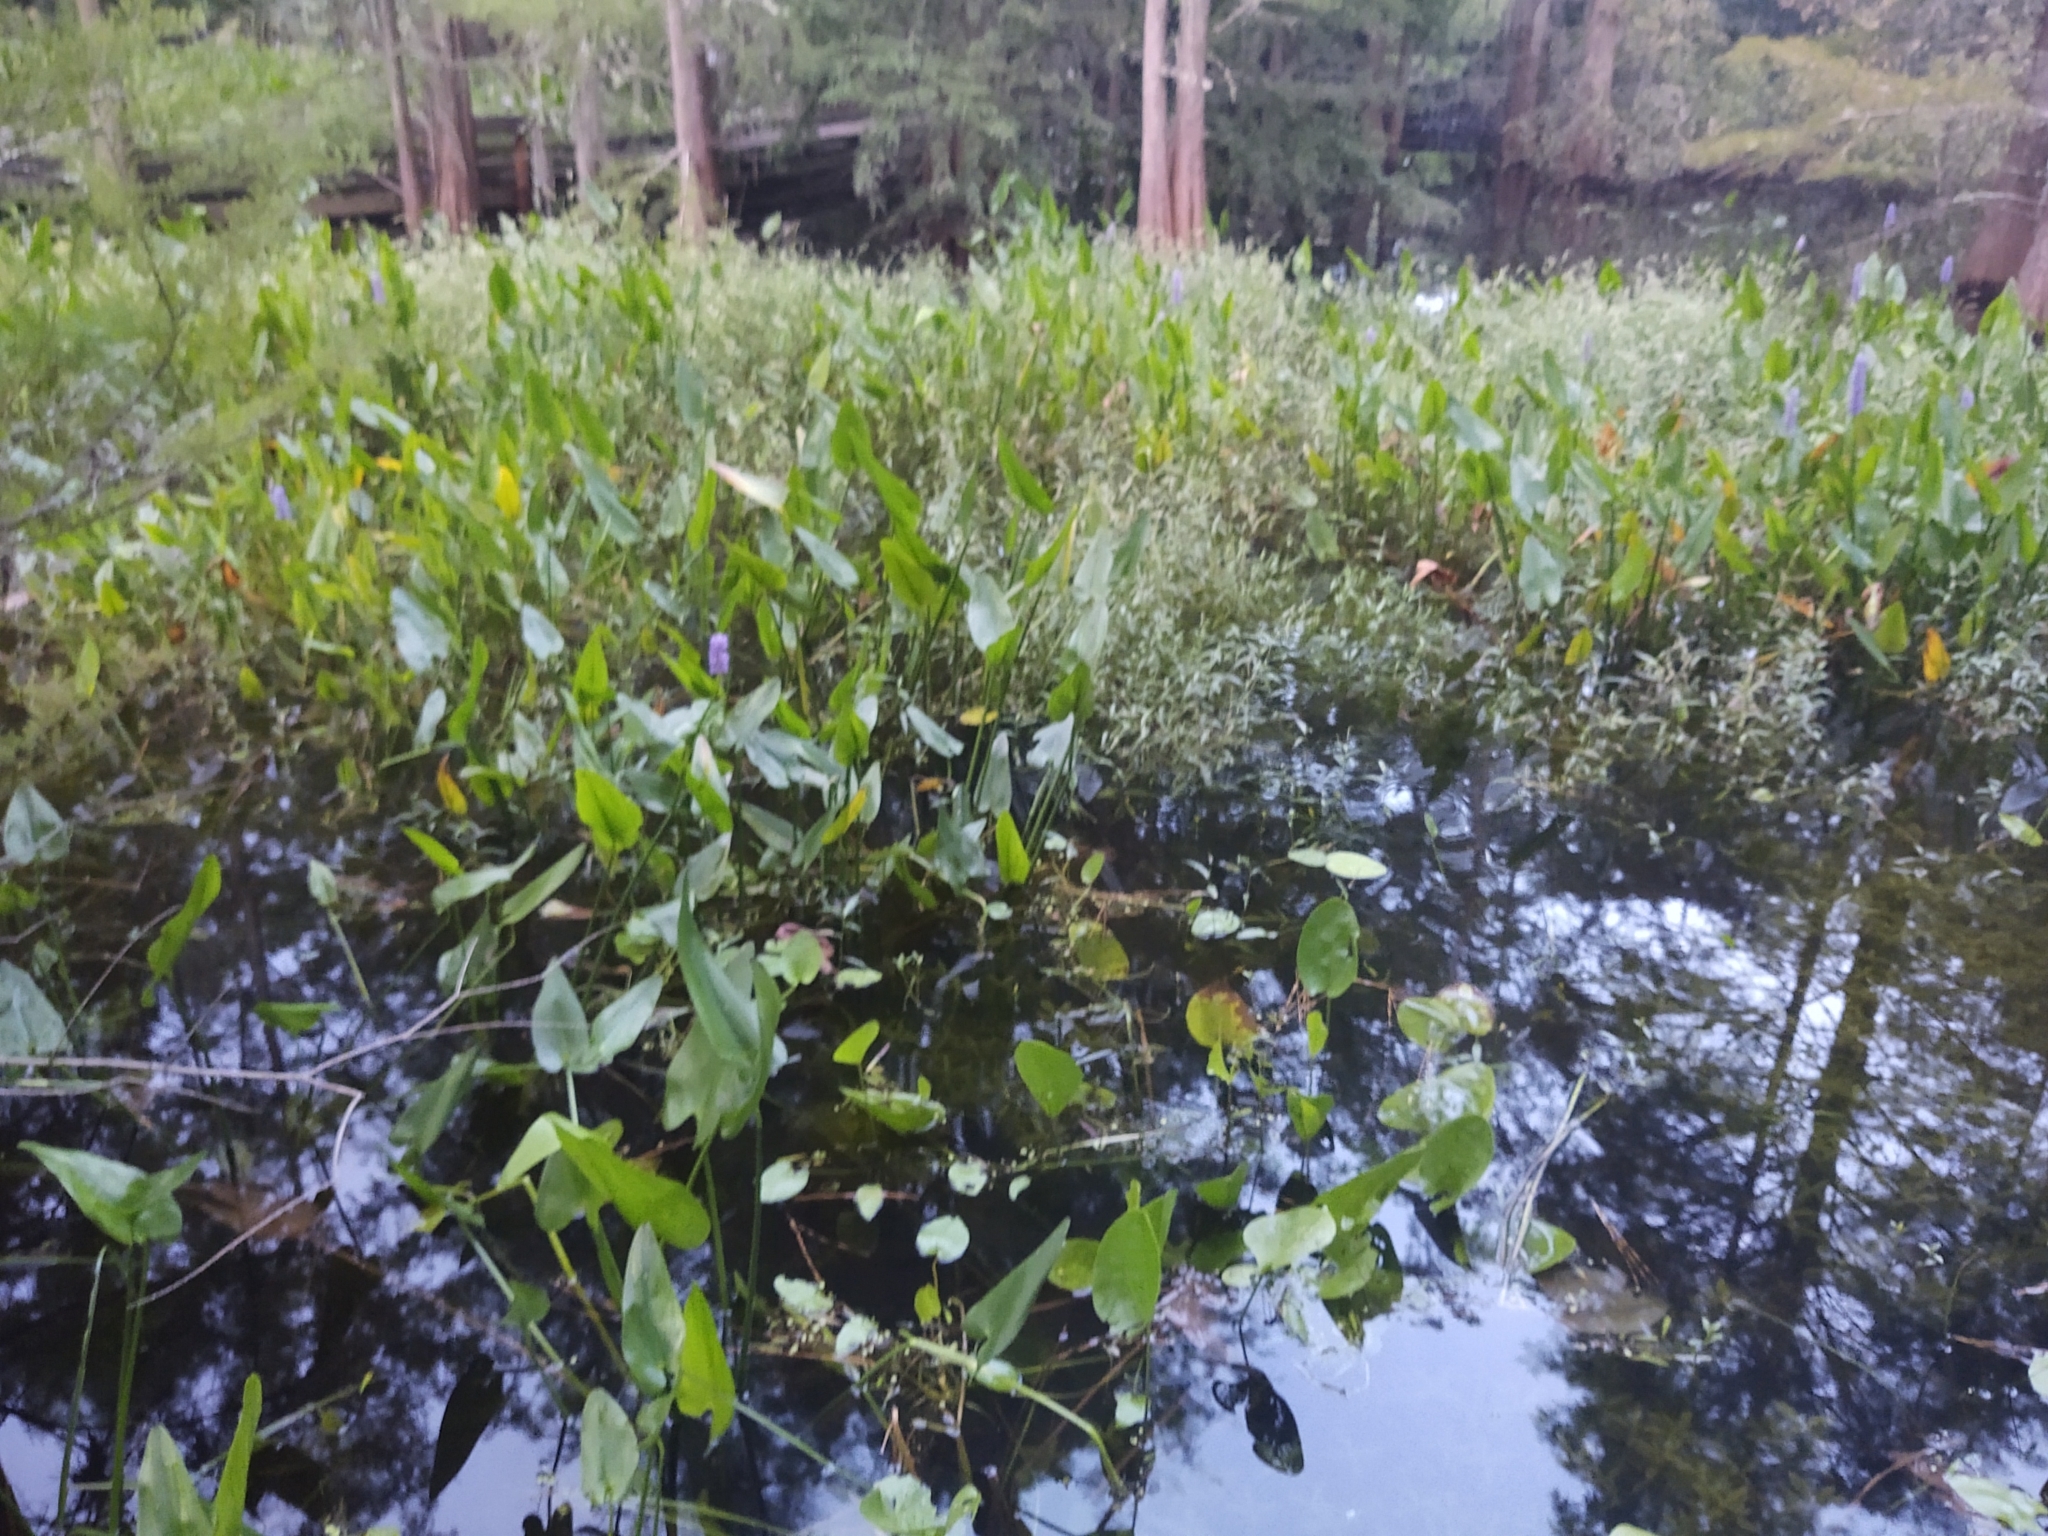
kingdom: Plantae
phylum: Tracheophyta
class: Liliopsida
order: Commelinales
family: Pontederiaceae
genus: Pontederia
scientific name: Pontederia cordata
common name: Pickerelweed
